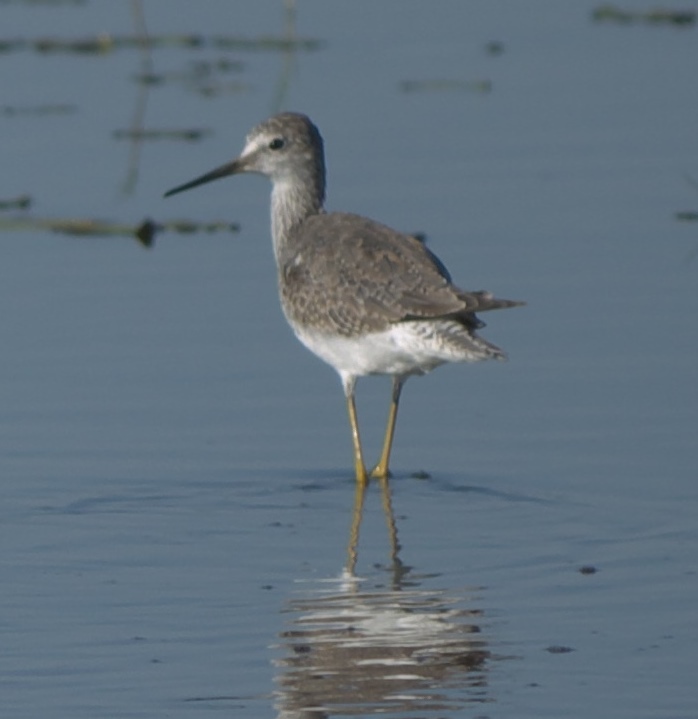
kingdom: Animalia
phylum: Chordata
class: Aves
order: Charadriiformes
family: Scolopacidae
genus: Tringa
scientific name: Tringa flavipes
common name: Lesser yellowlegs
